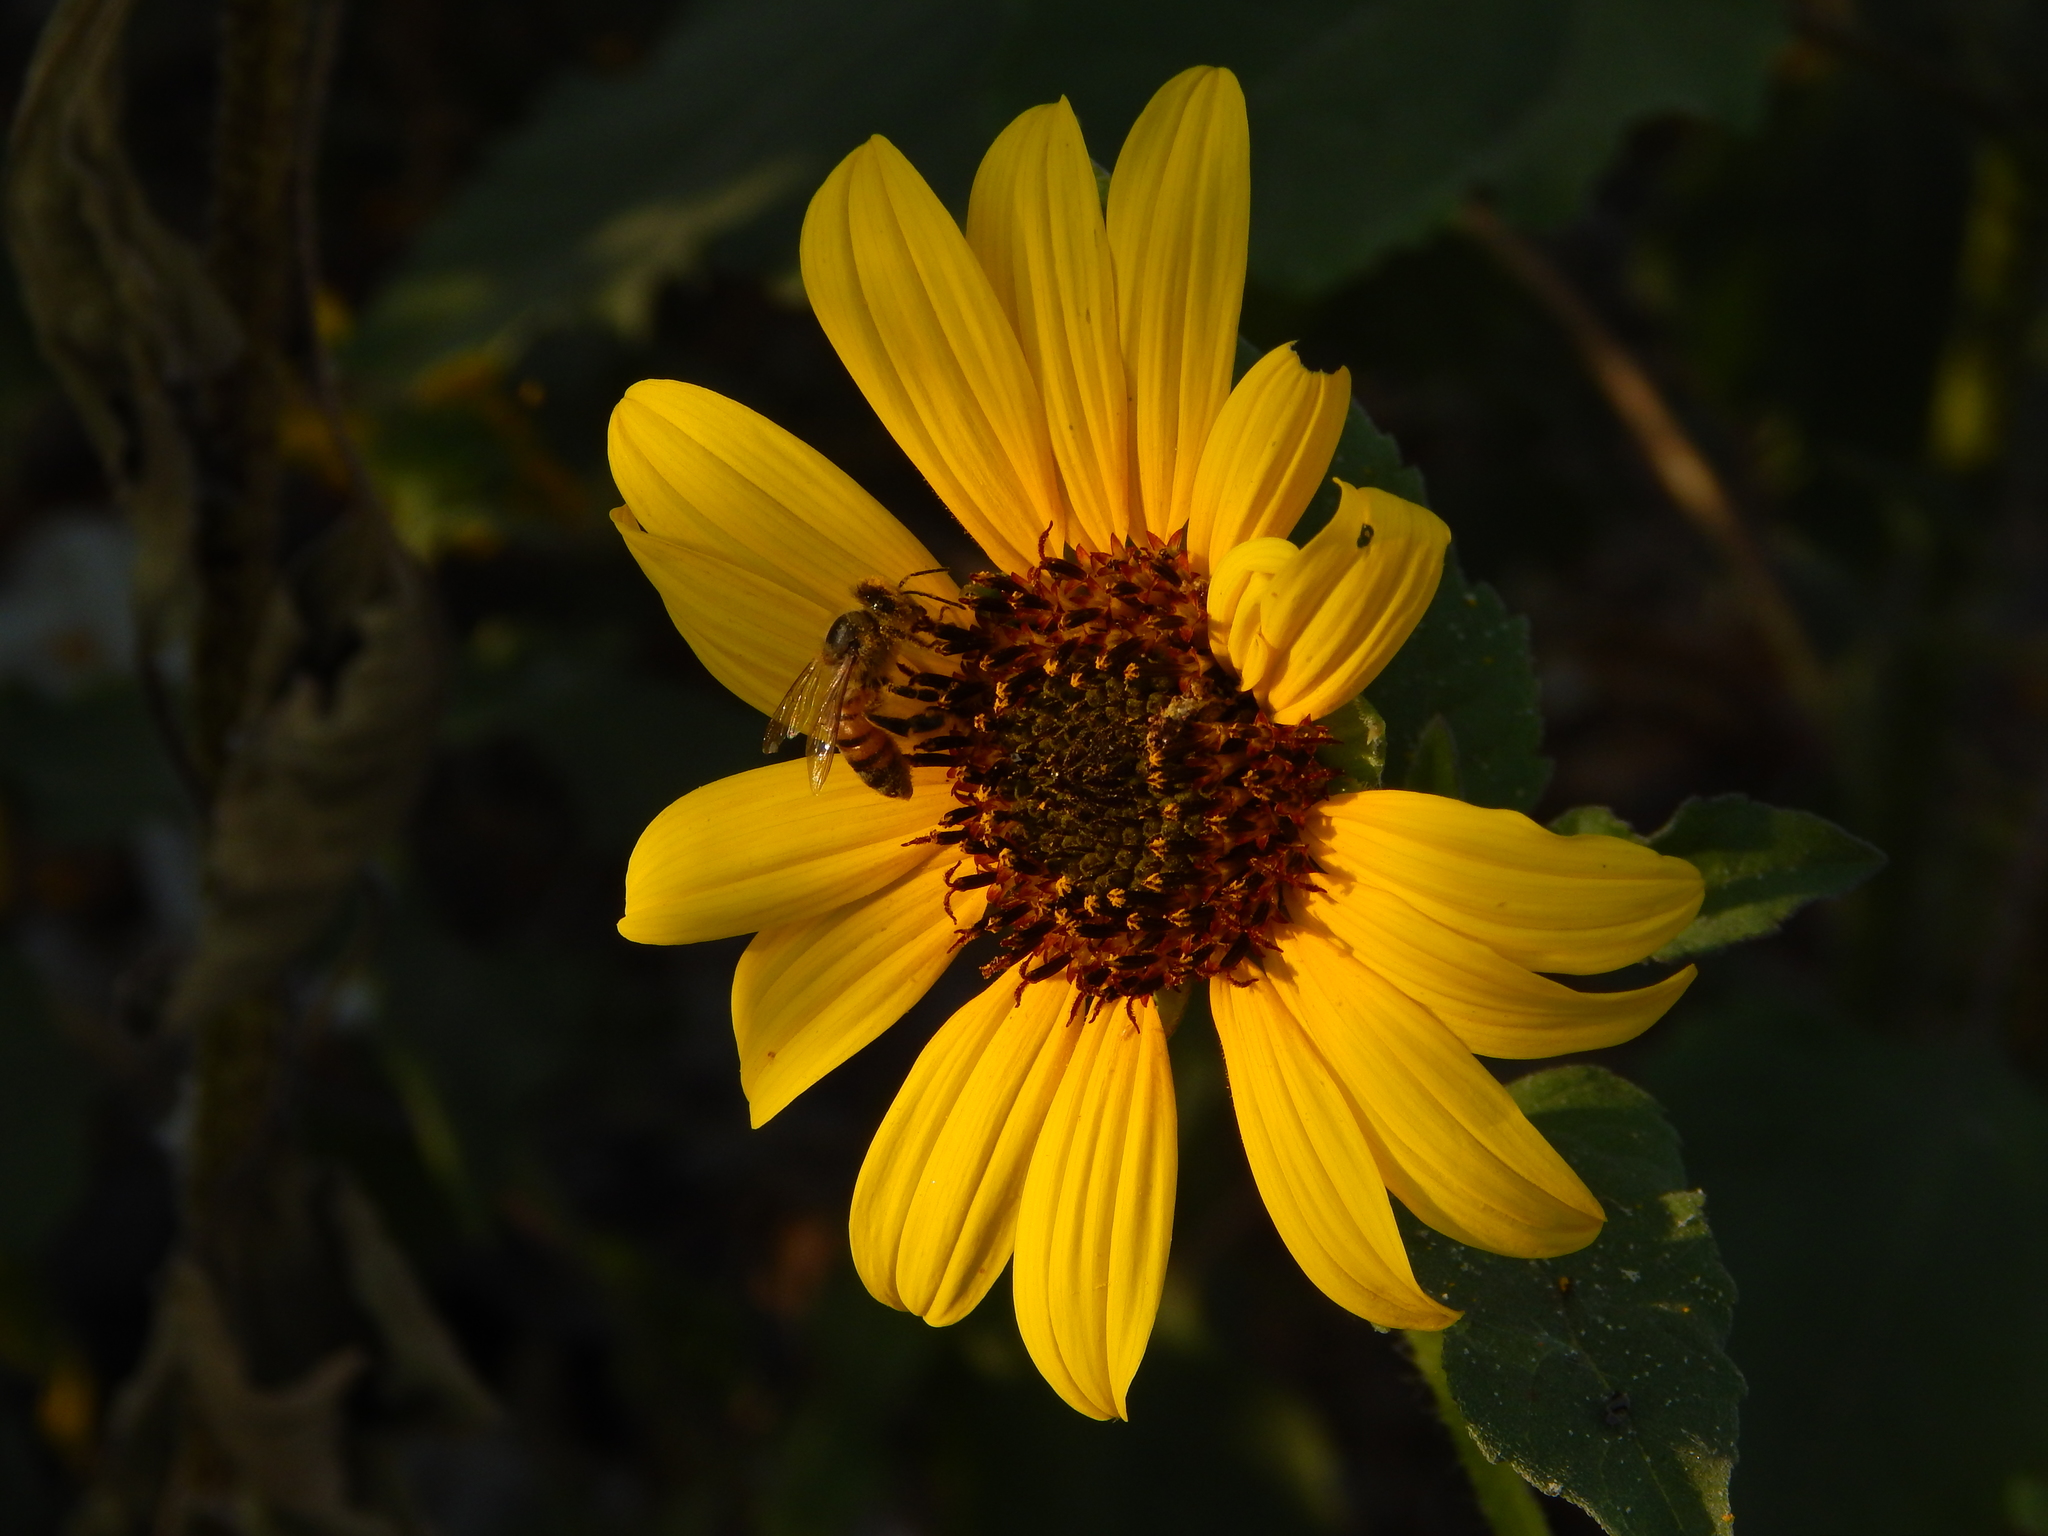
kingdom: Animalia
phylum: Arthropoda
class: Insecta
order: Hymenoptera
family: Apidae
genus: Apis
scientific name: Apis mellifera
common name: Honey bee
